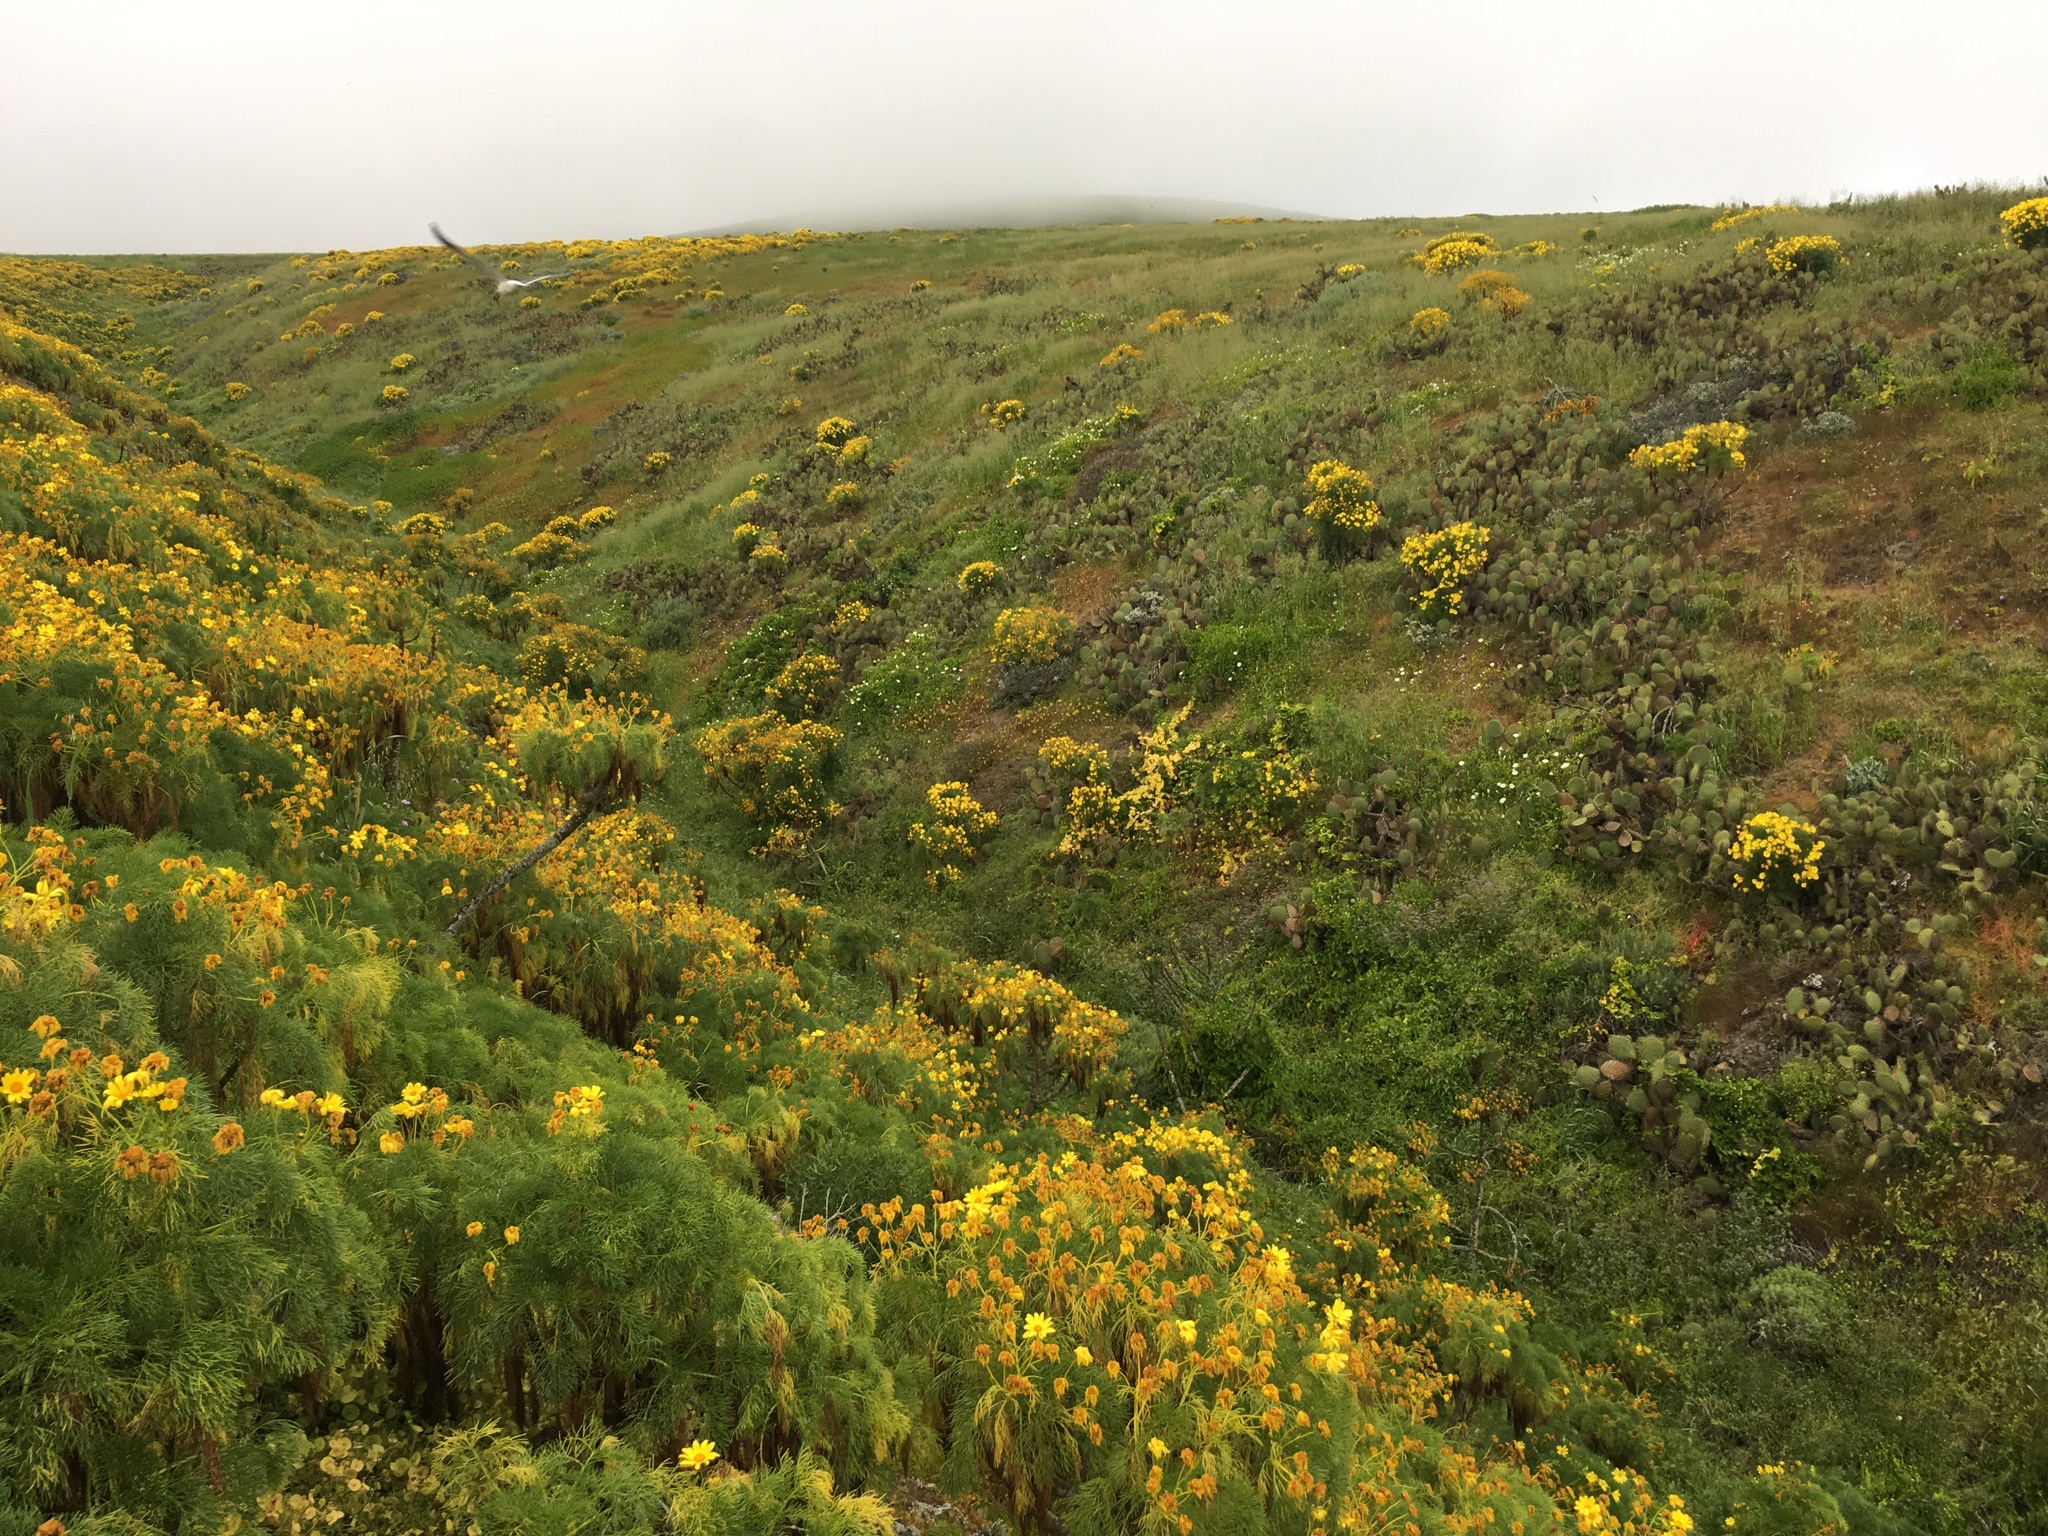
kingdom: Plantae
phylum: Tracheophyta
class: Magnoliopsida
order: Asterales
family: Asteraceae
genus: Coreopsis
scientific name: Coreopsis gigantea
